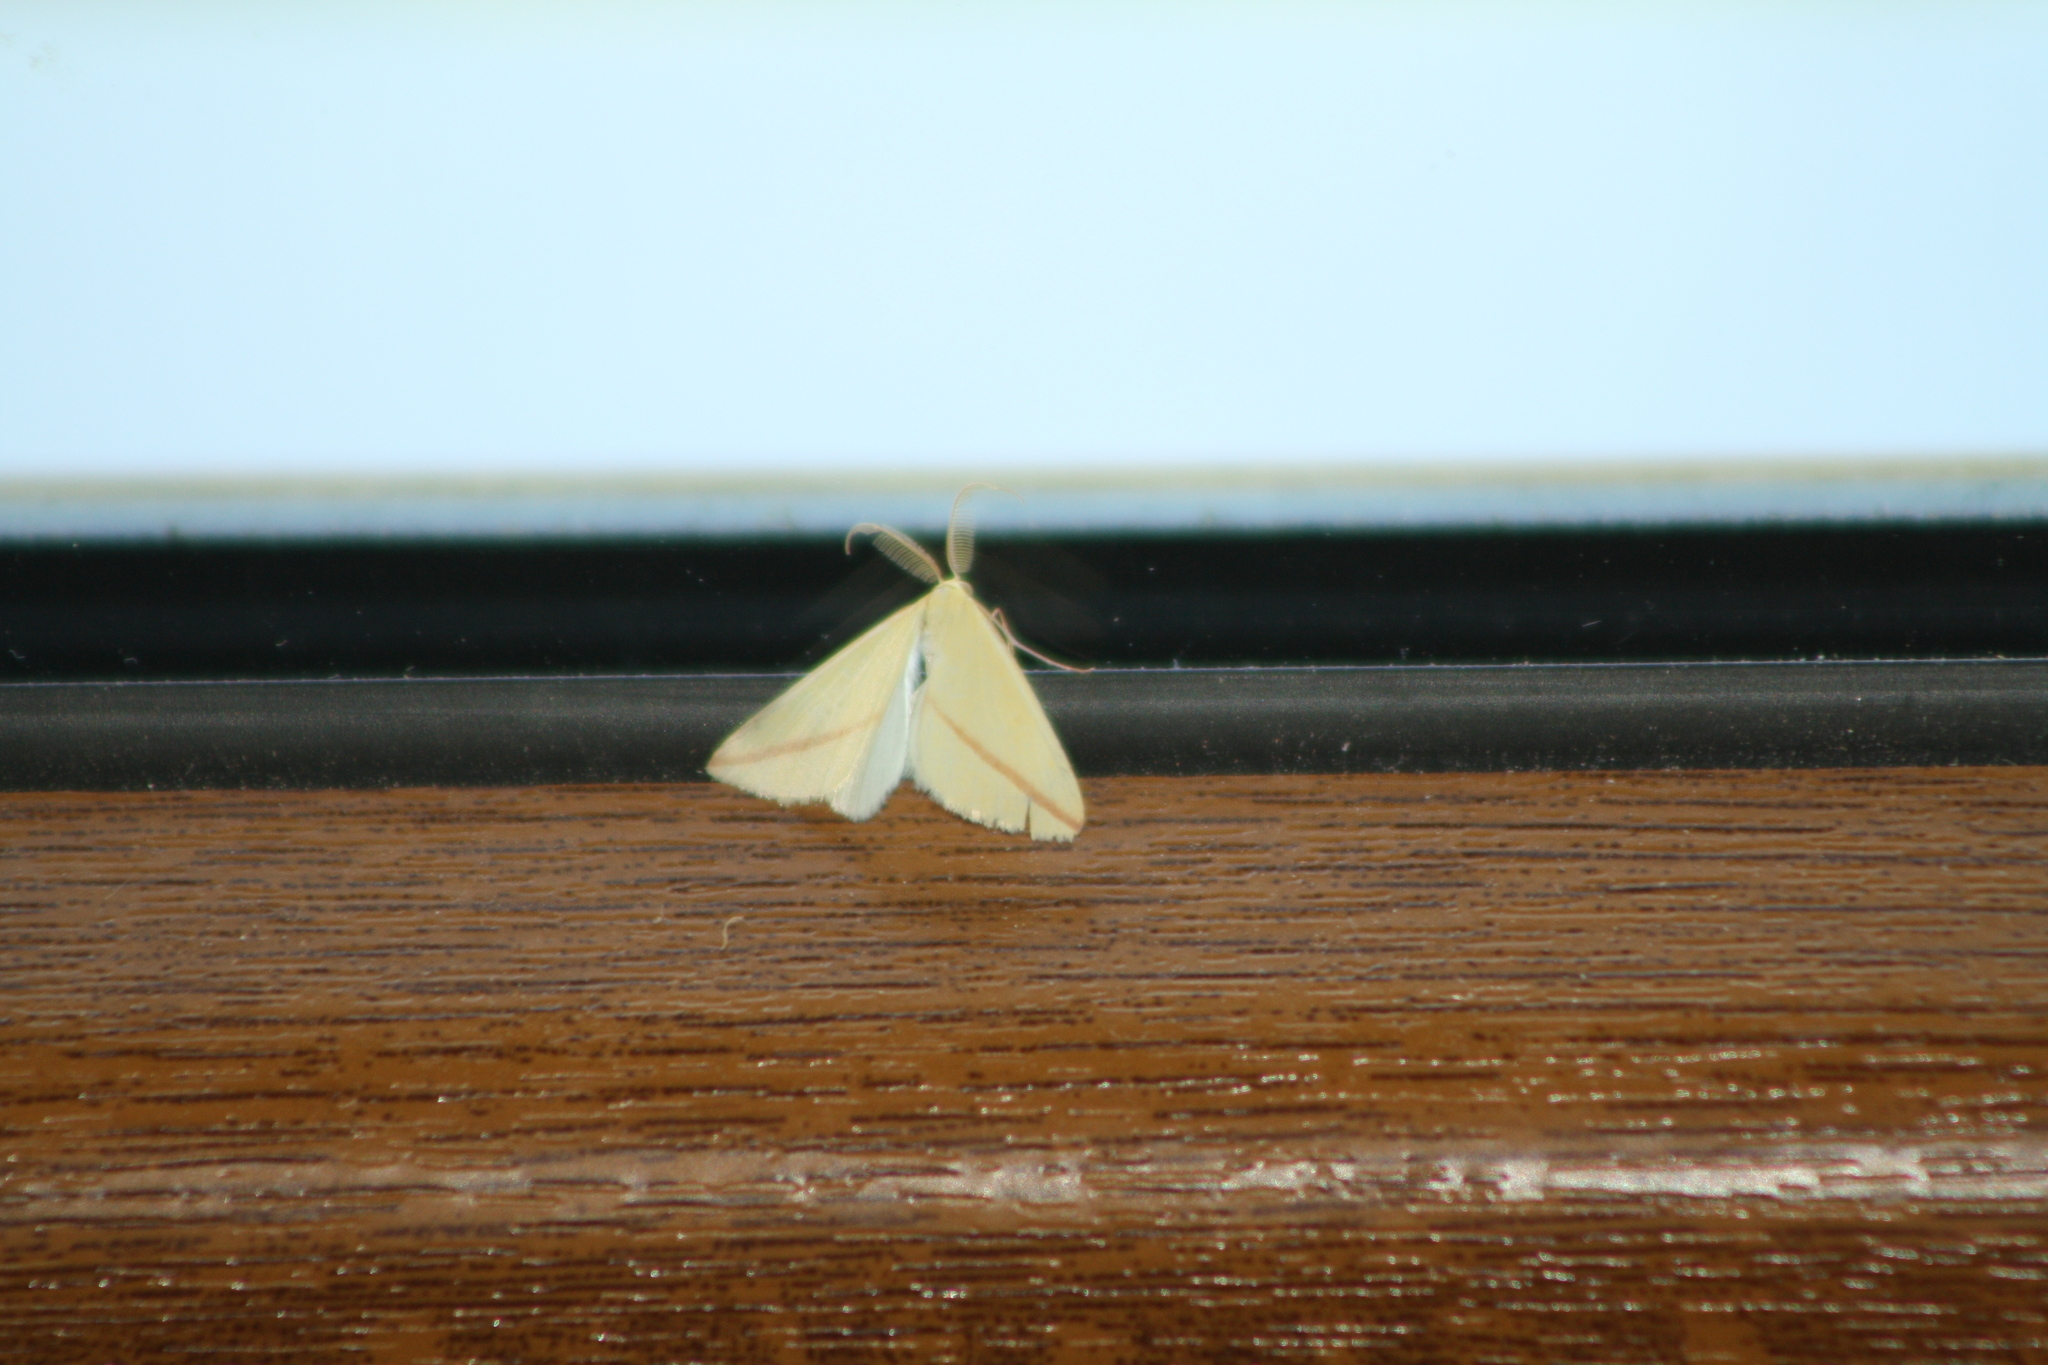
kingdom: Animalia
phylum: Arthropoda
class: Insecta
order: Lepidoptera
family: Geometridae
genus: Rhodometra
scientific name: Rhodometra sacraria
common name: Vestal
